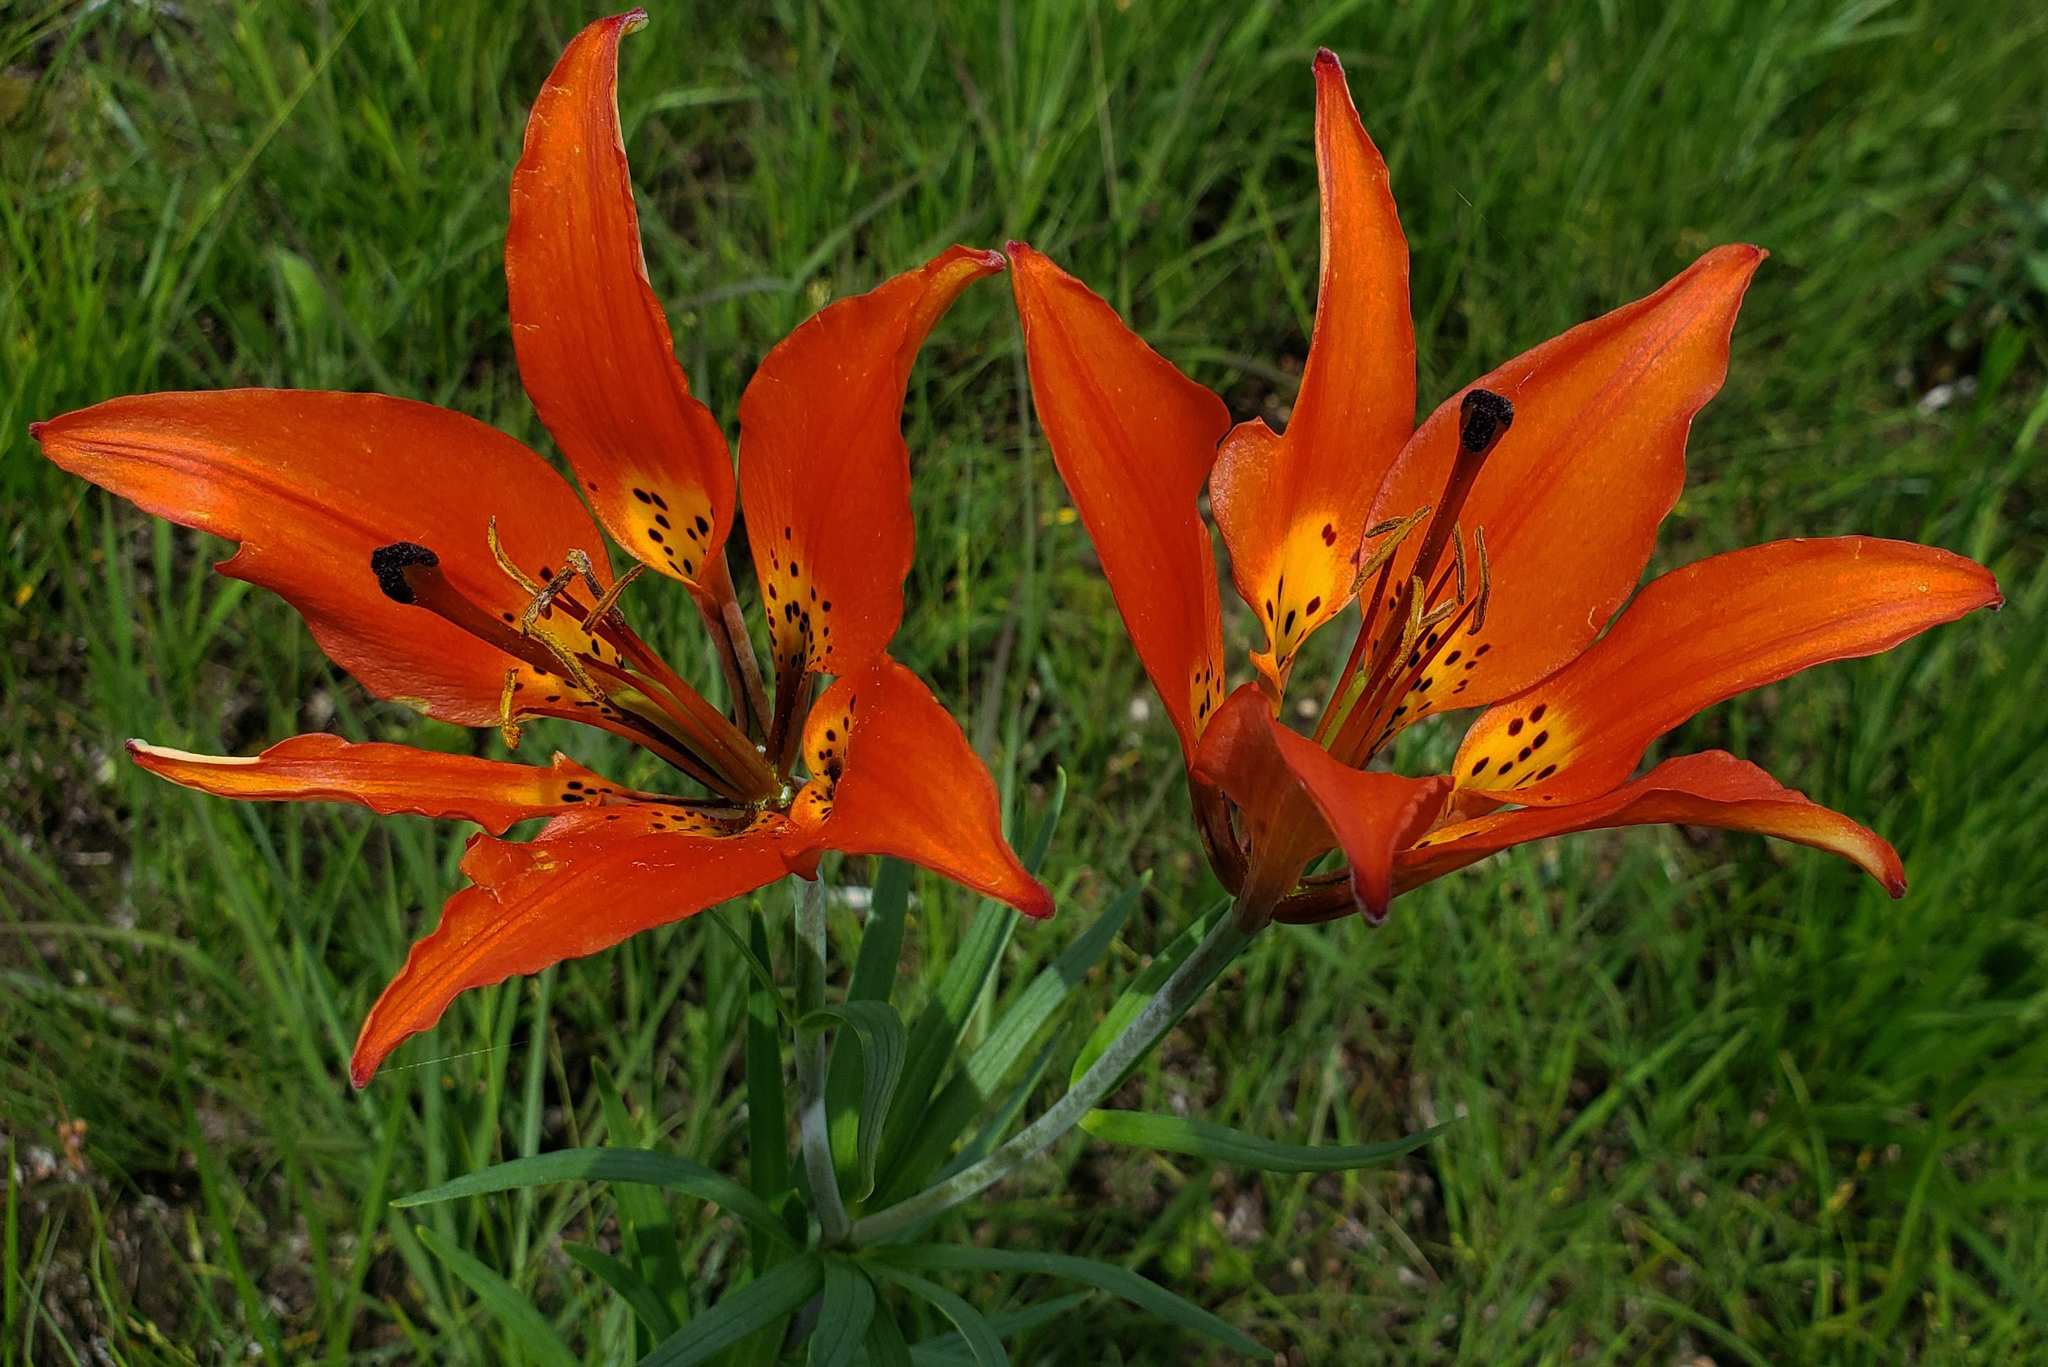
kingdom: Plantae
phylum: Tracheophyta
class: Liliopsida
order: Liliales
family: Liliaceae
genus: Lilium
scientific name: Lilium philadelphicum
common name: Red lily
